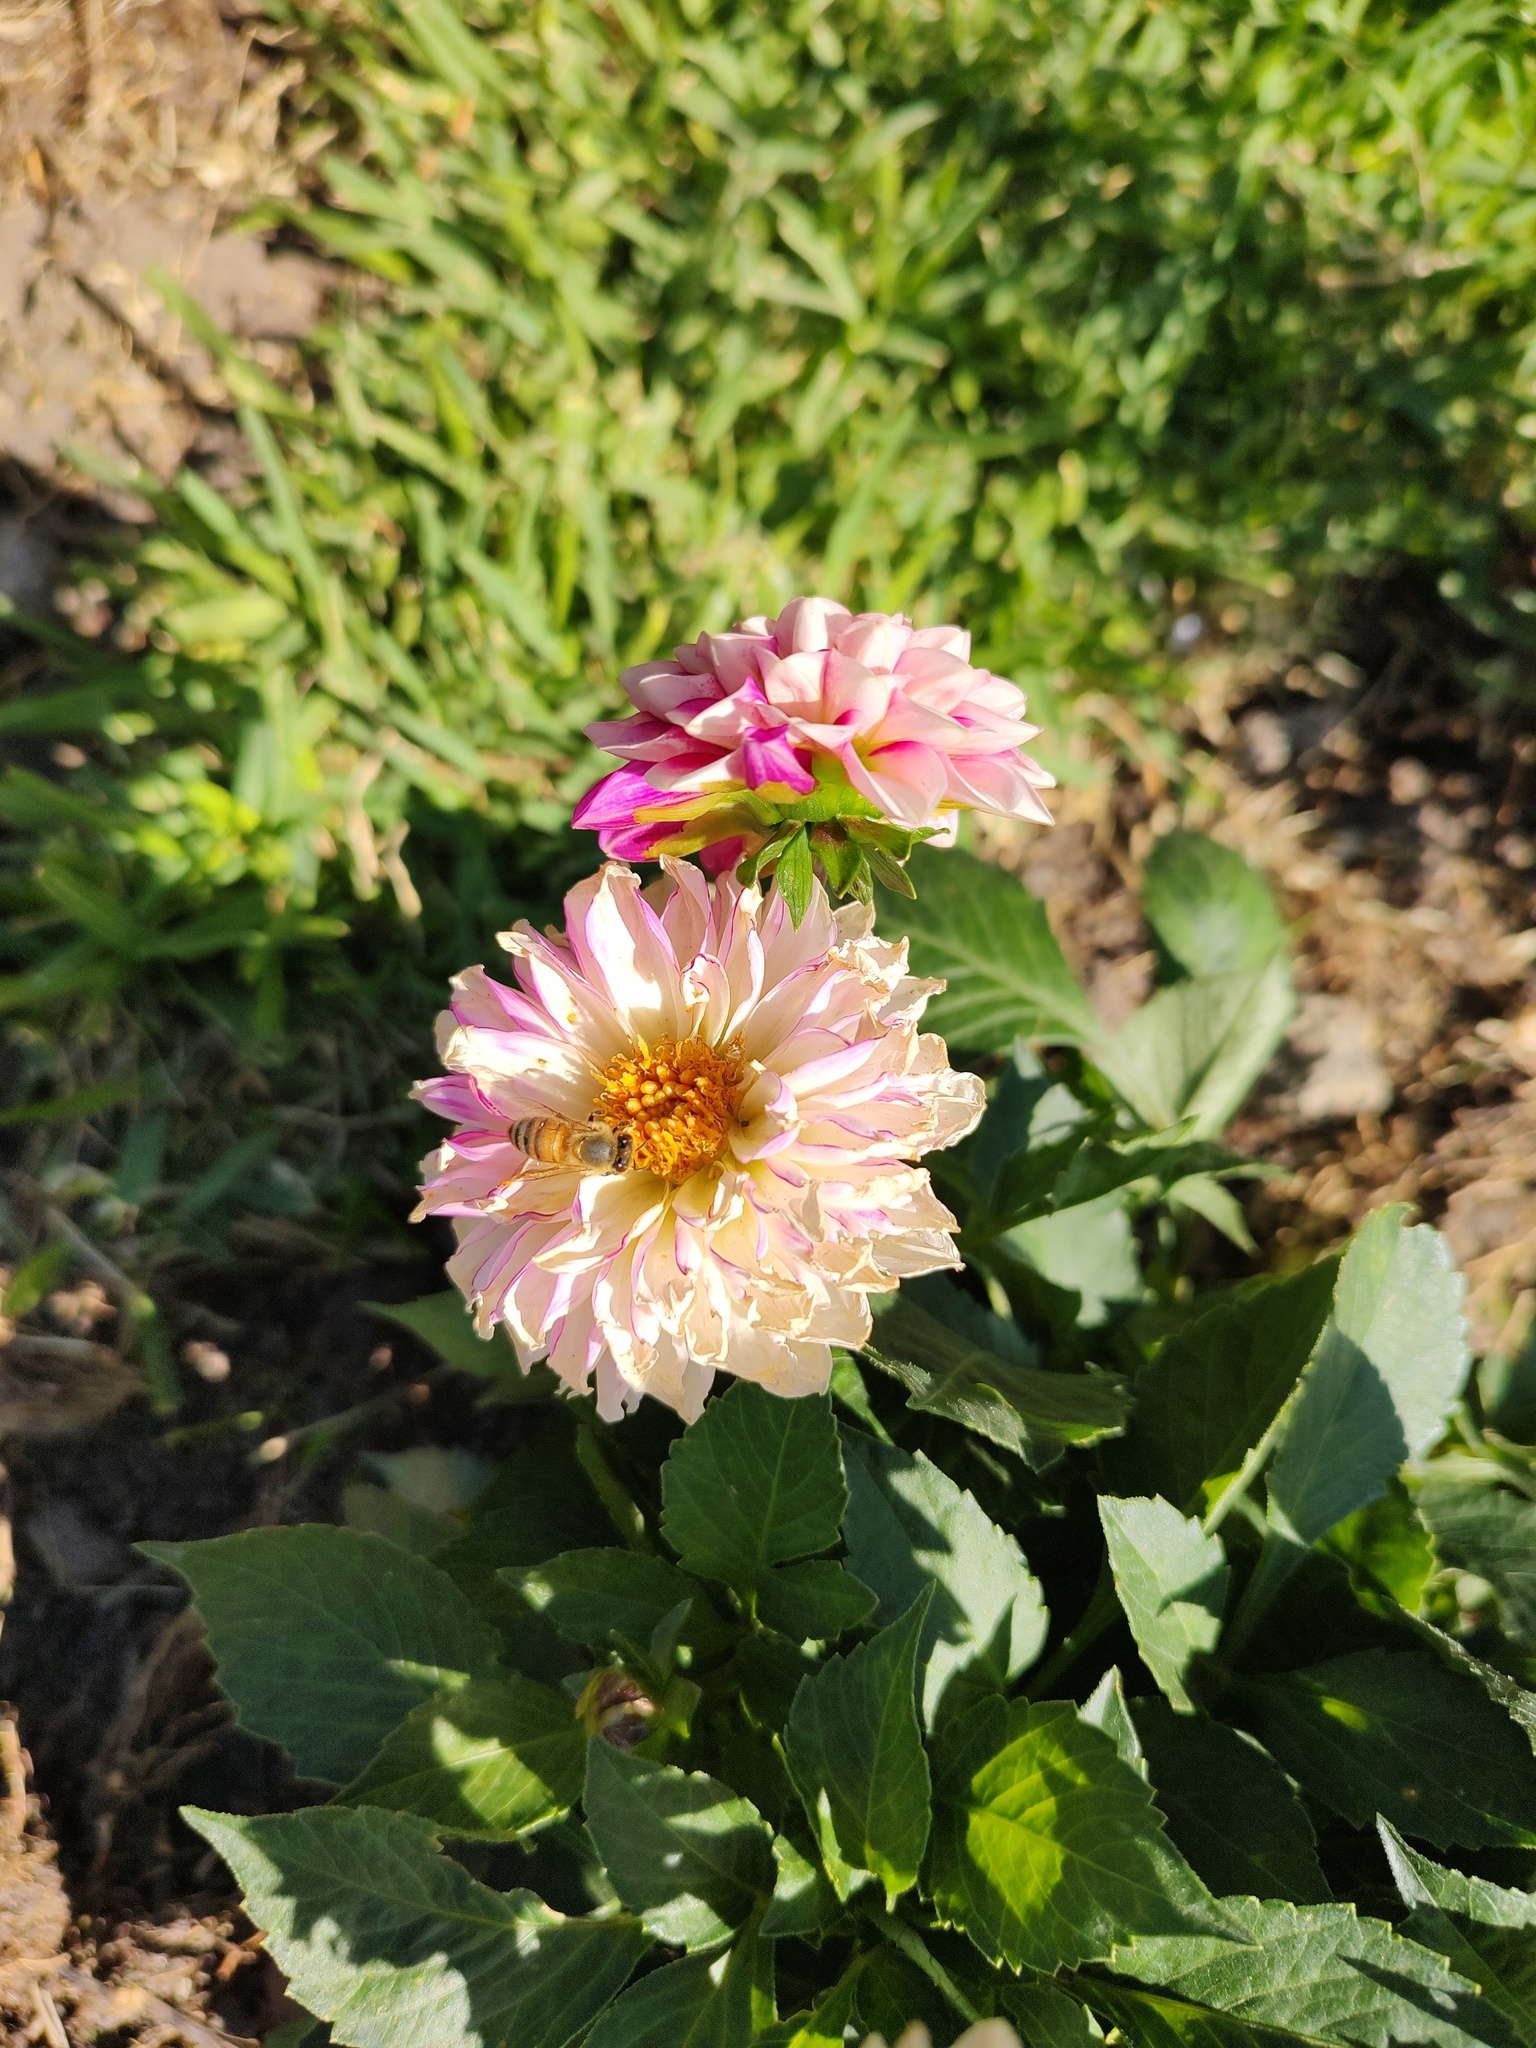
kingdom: Animalia
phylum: Arthropoda
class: Insecta
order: Hymenoptera
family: Apidae
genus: Apis
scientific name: Apis mellifera
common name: Honey bee
